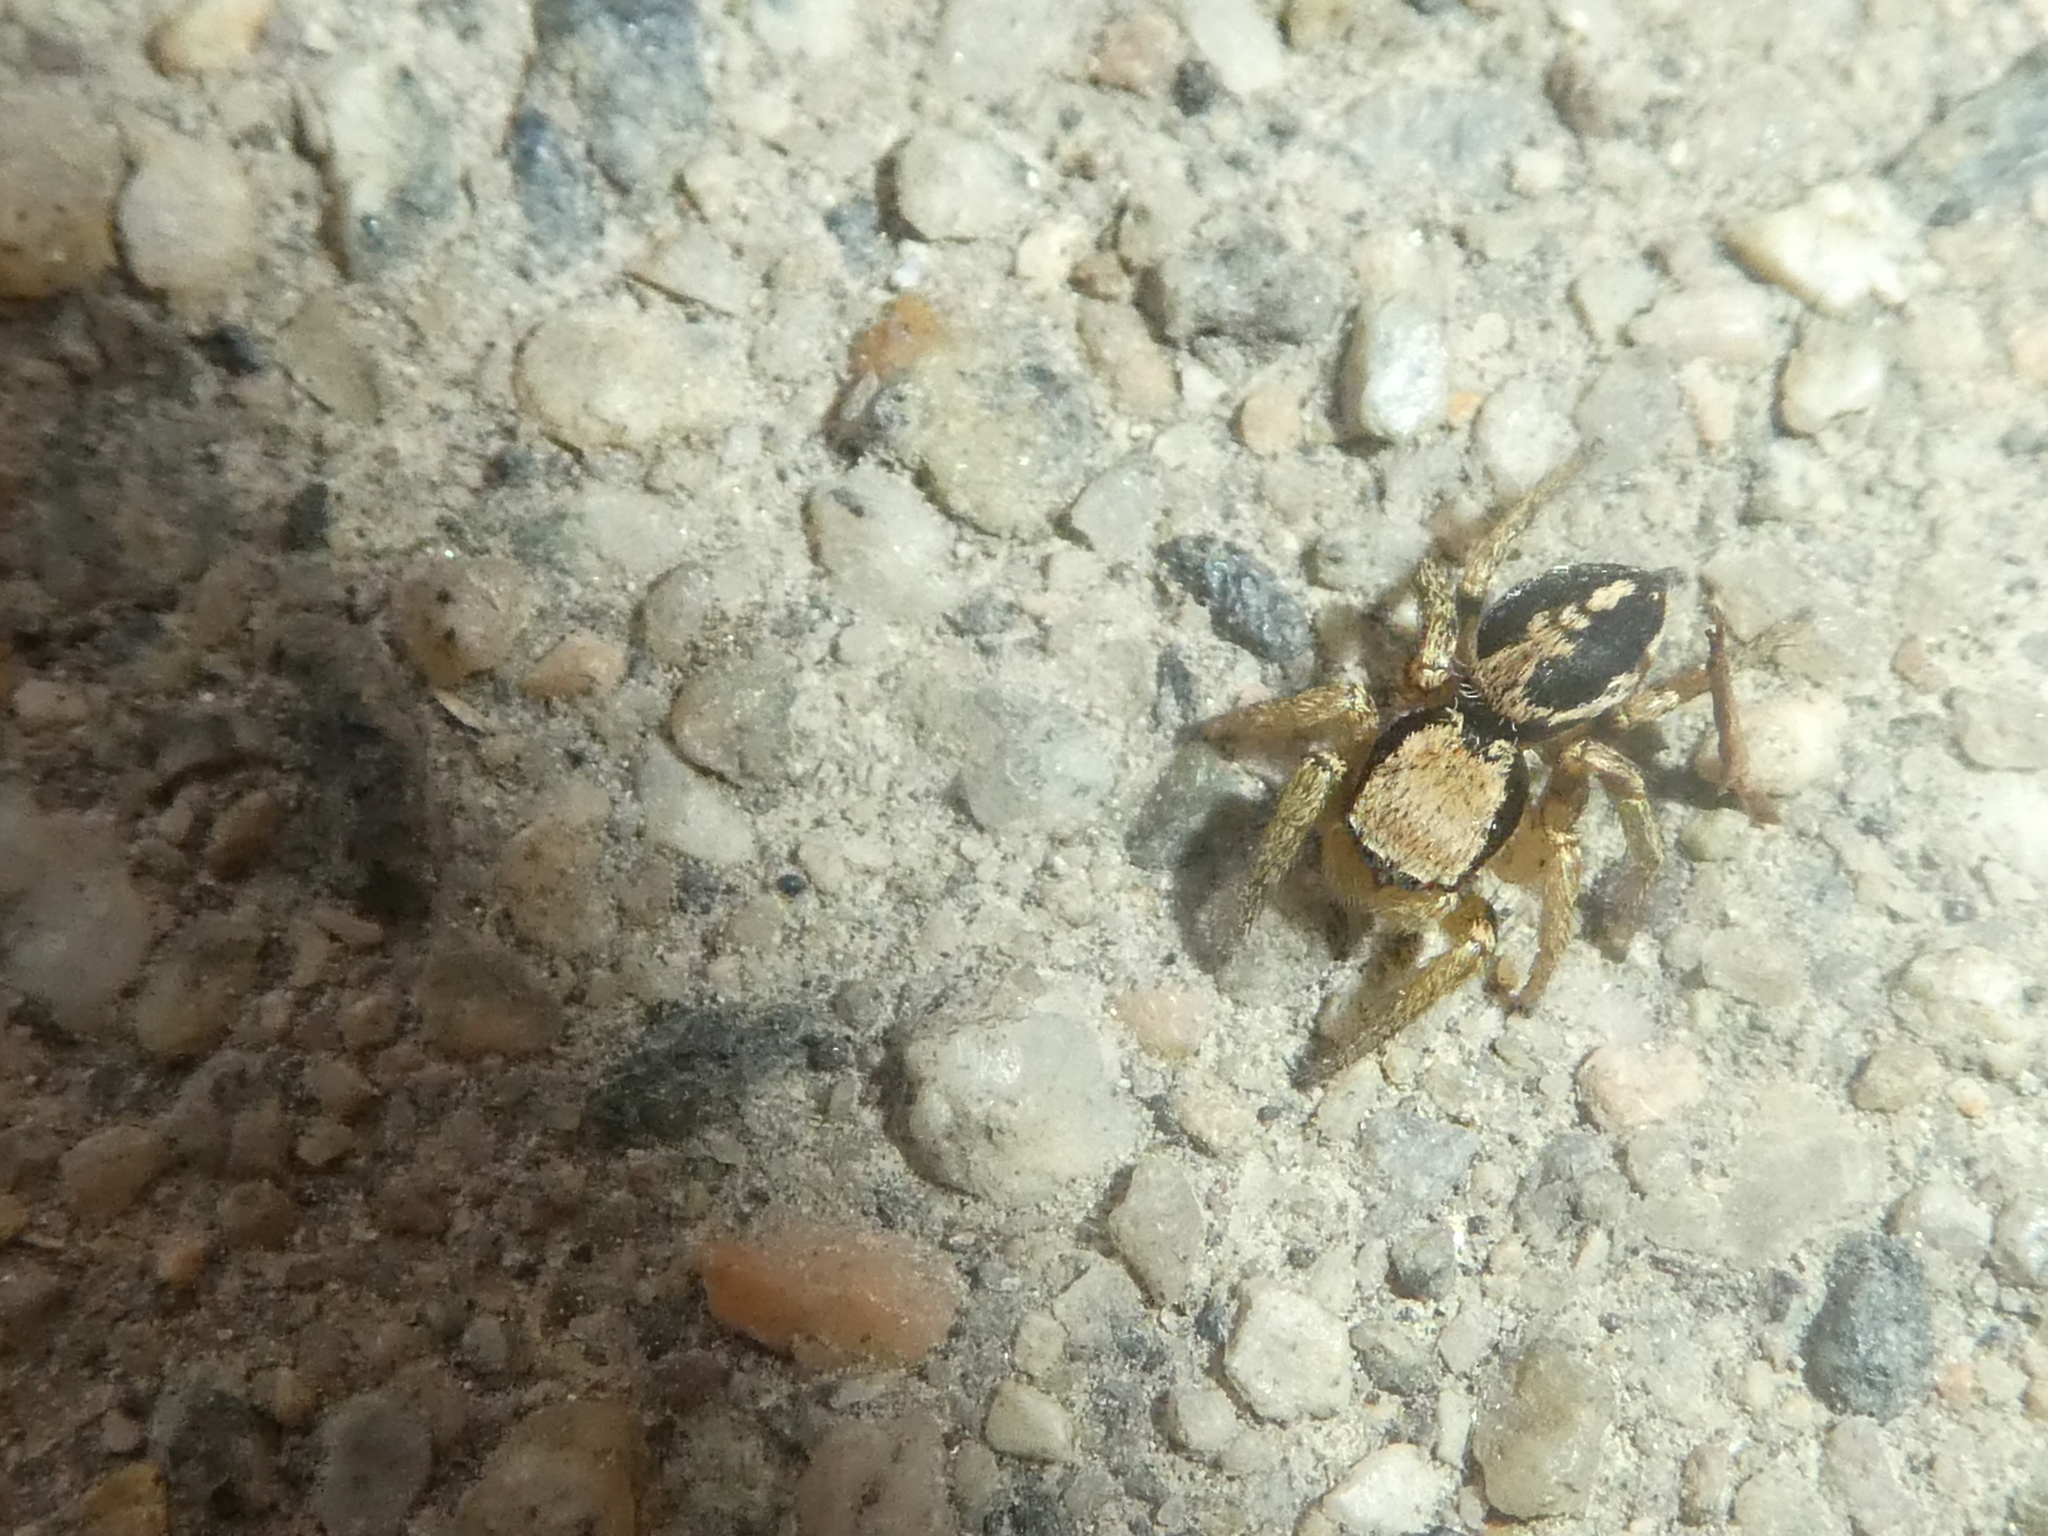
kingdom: Animalia
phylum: Arthropoda
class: Arachnida
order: Araneae
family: Salticidae
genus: Habronattus
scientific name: Habronattus pyrrithrix
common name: Jumping spider
